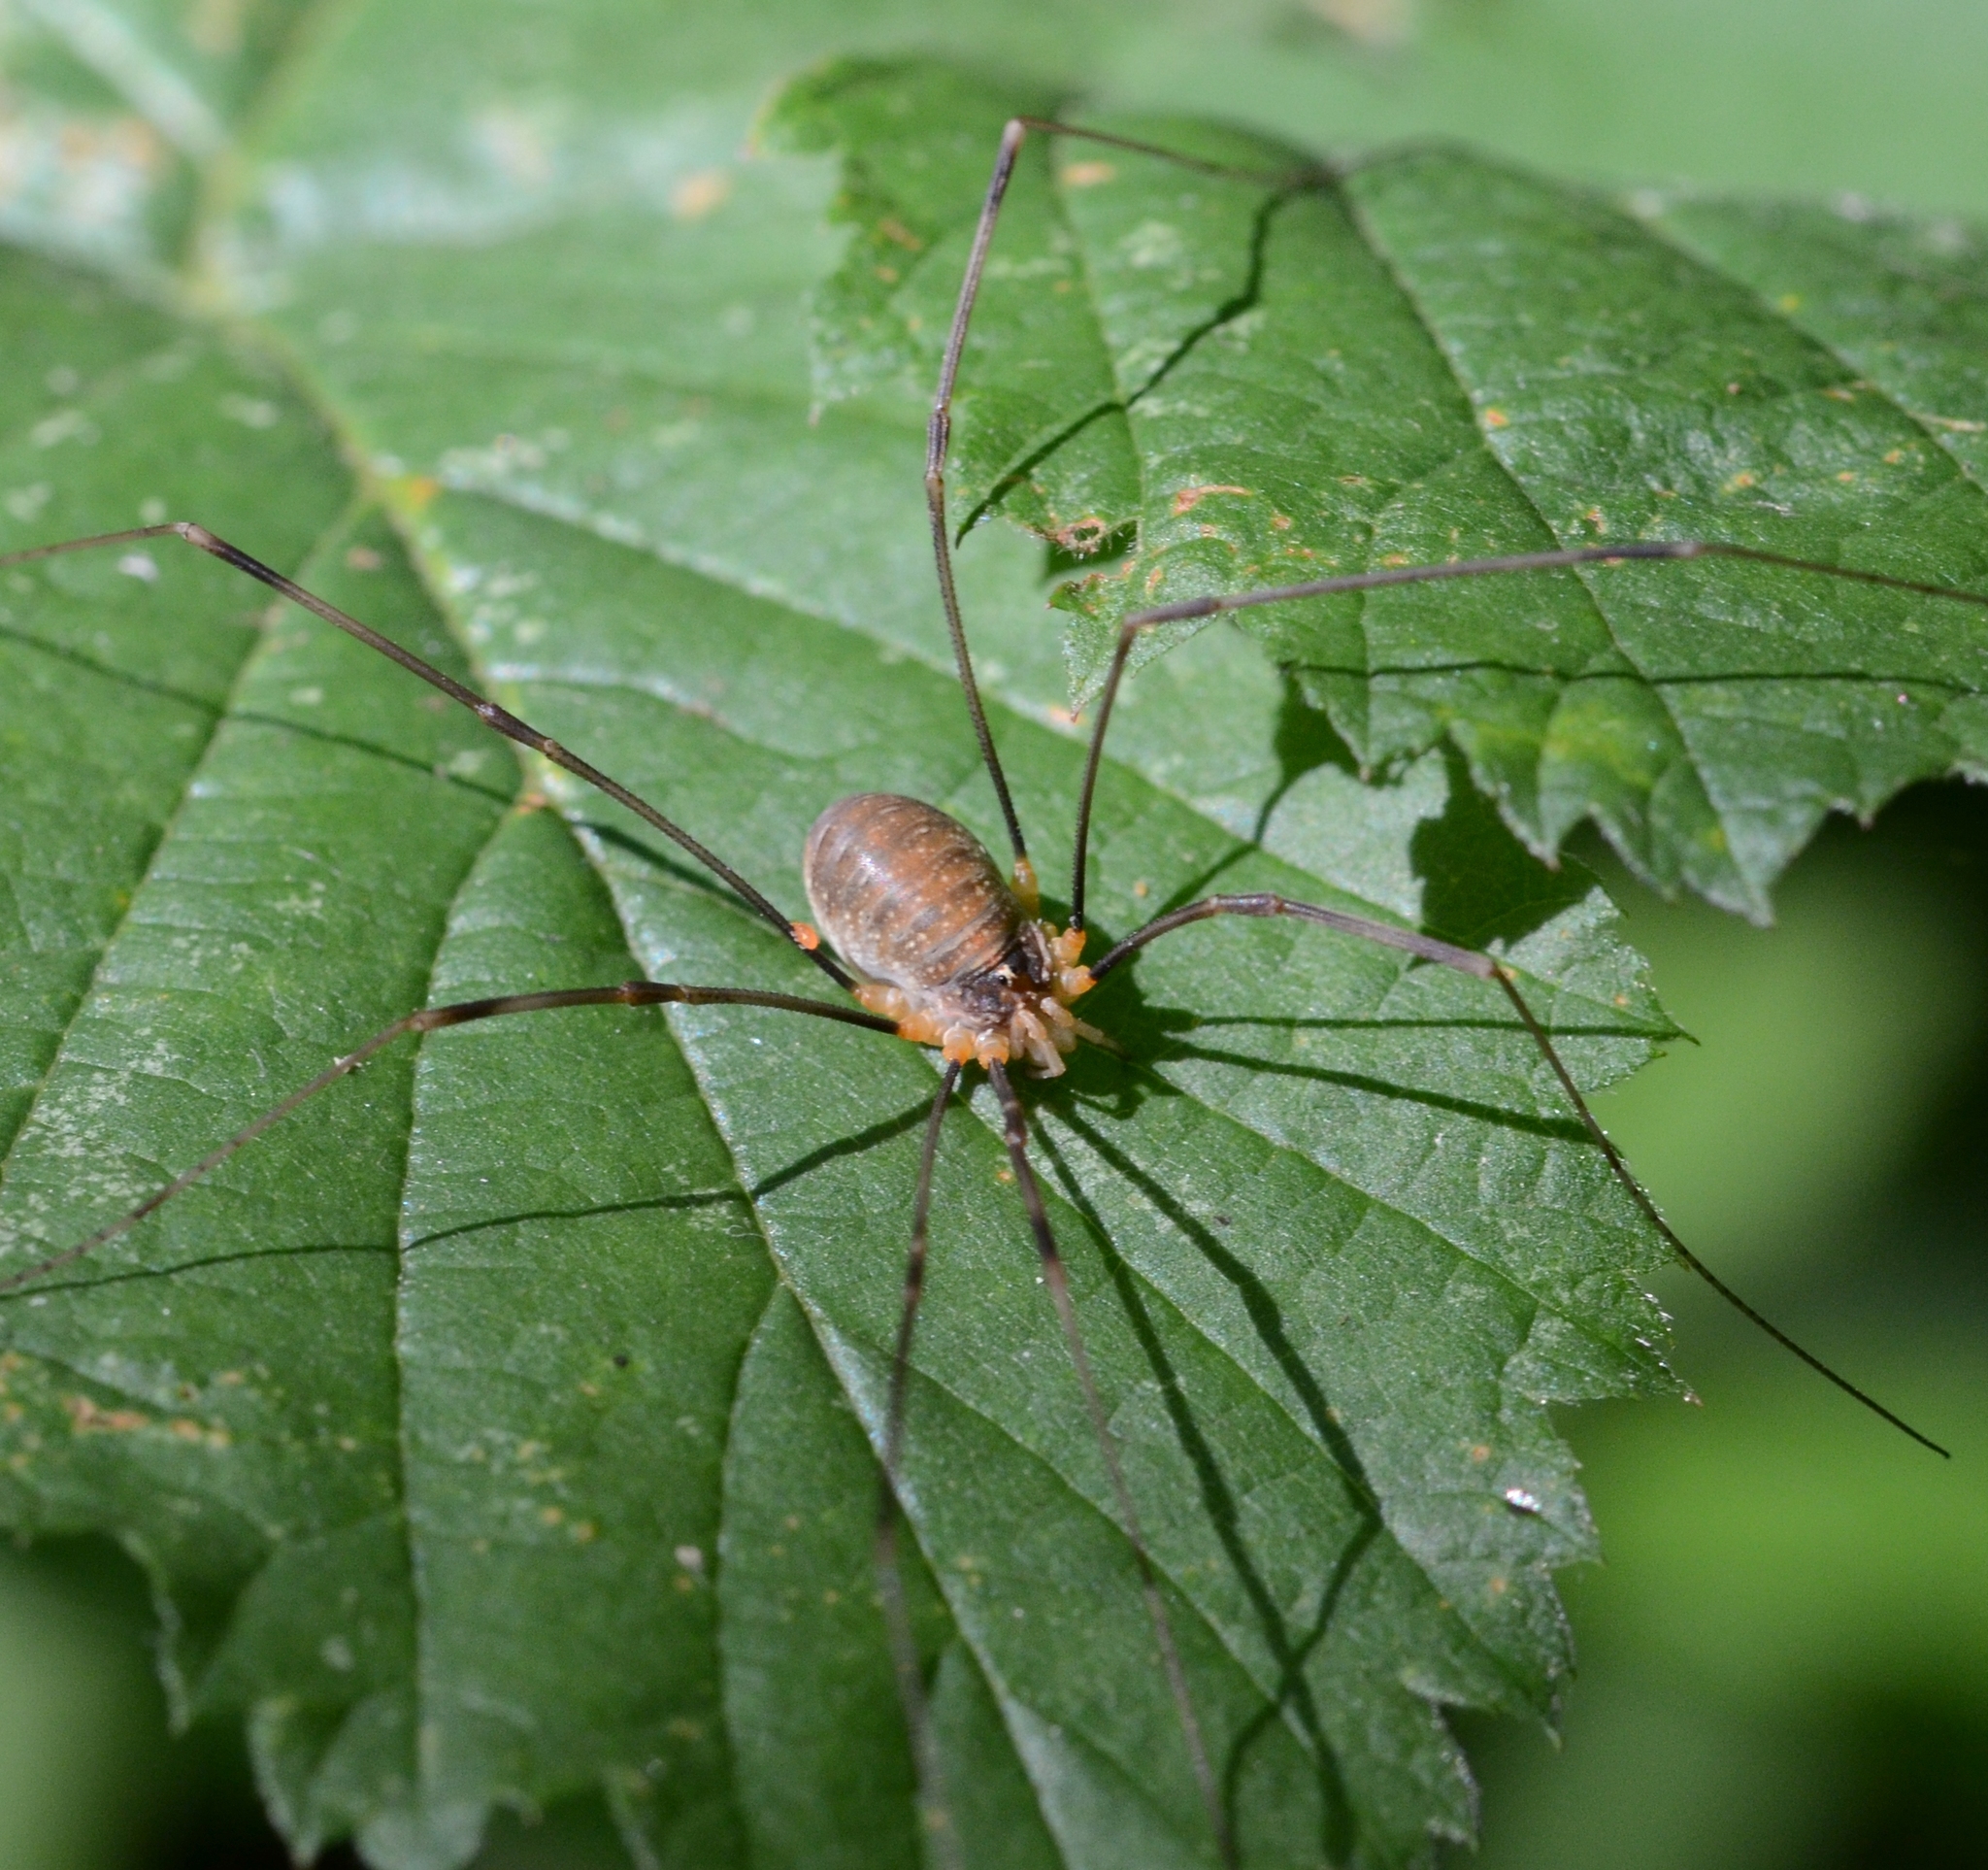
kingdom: Animalia
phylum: Arthropoda
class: Arachnida
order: Opiliones
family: Phalangiidae
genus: Opilio
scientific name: Opilio canestrinii
